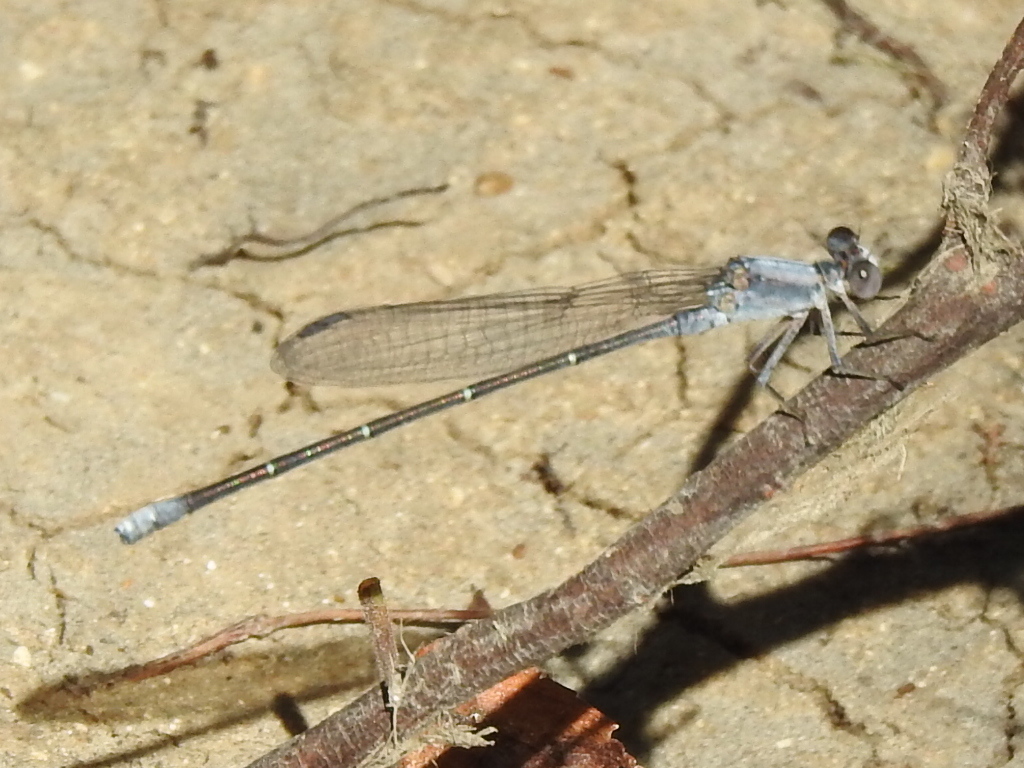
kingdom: Animalia
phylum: Arthropoda
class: Insecta
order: Odonata
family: Coenagrionidae
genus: Argia
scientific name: Argia moesta
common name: Powdered dancer
